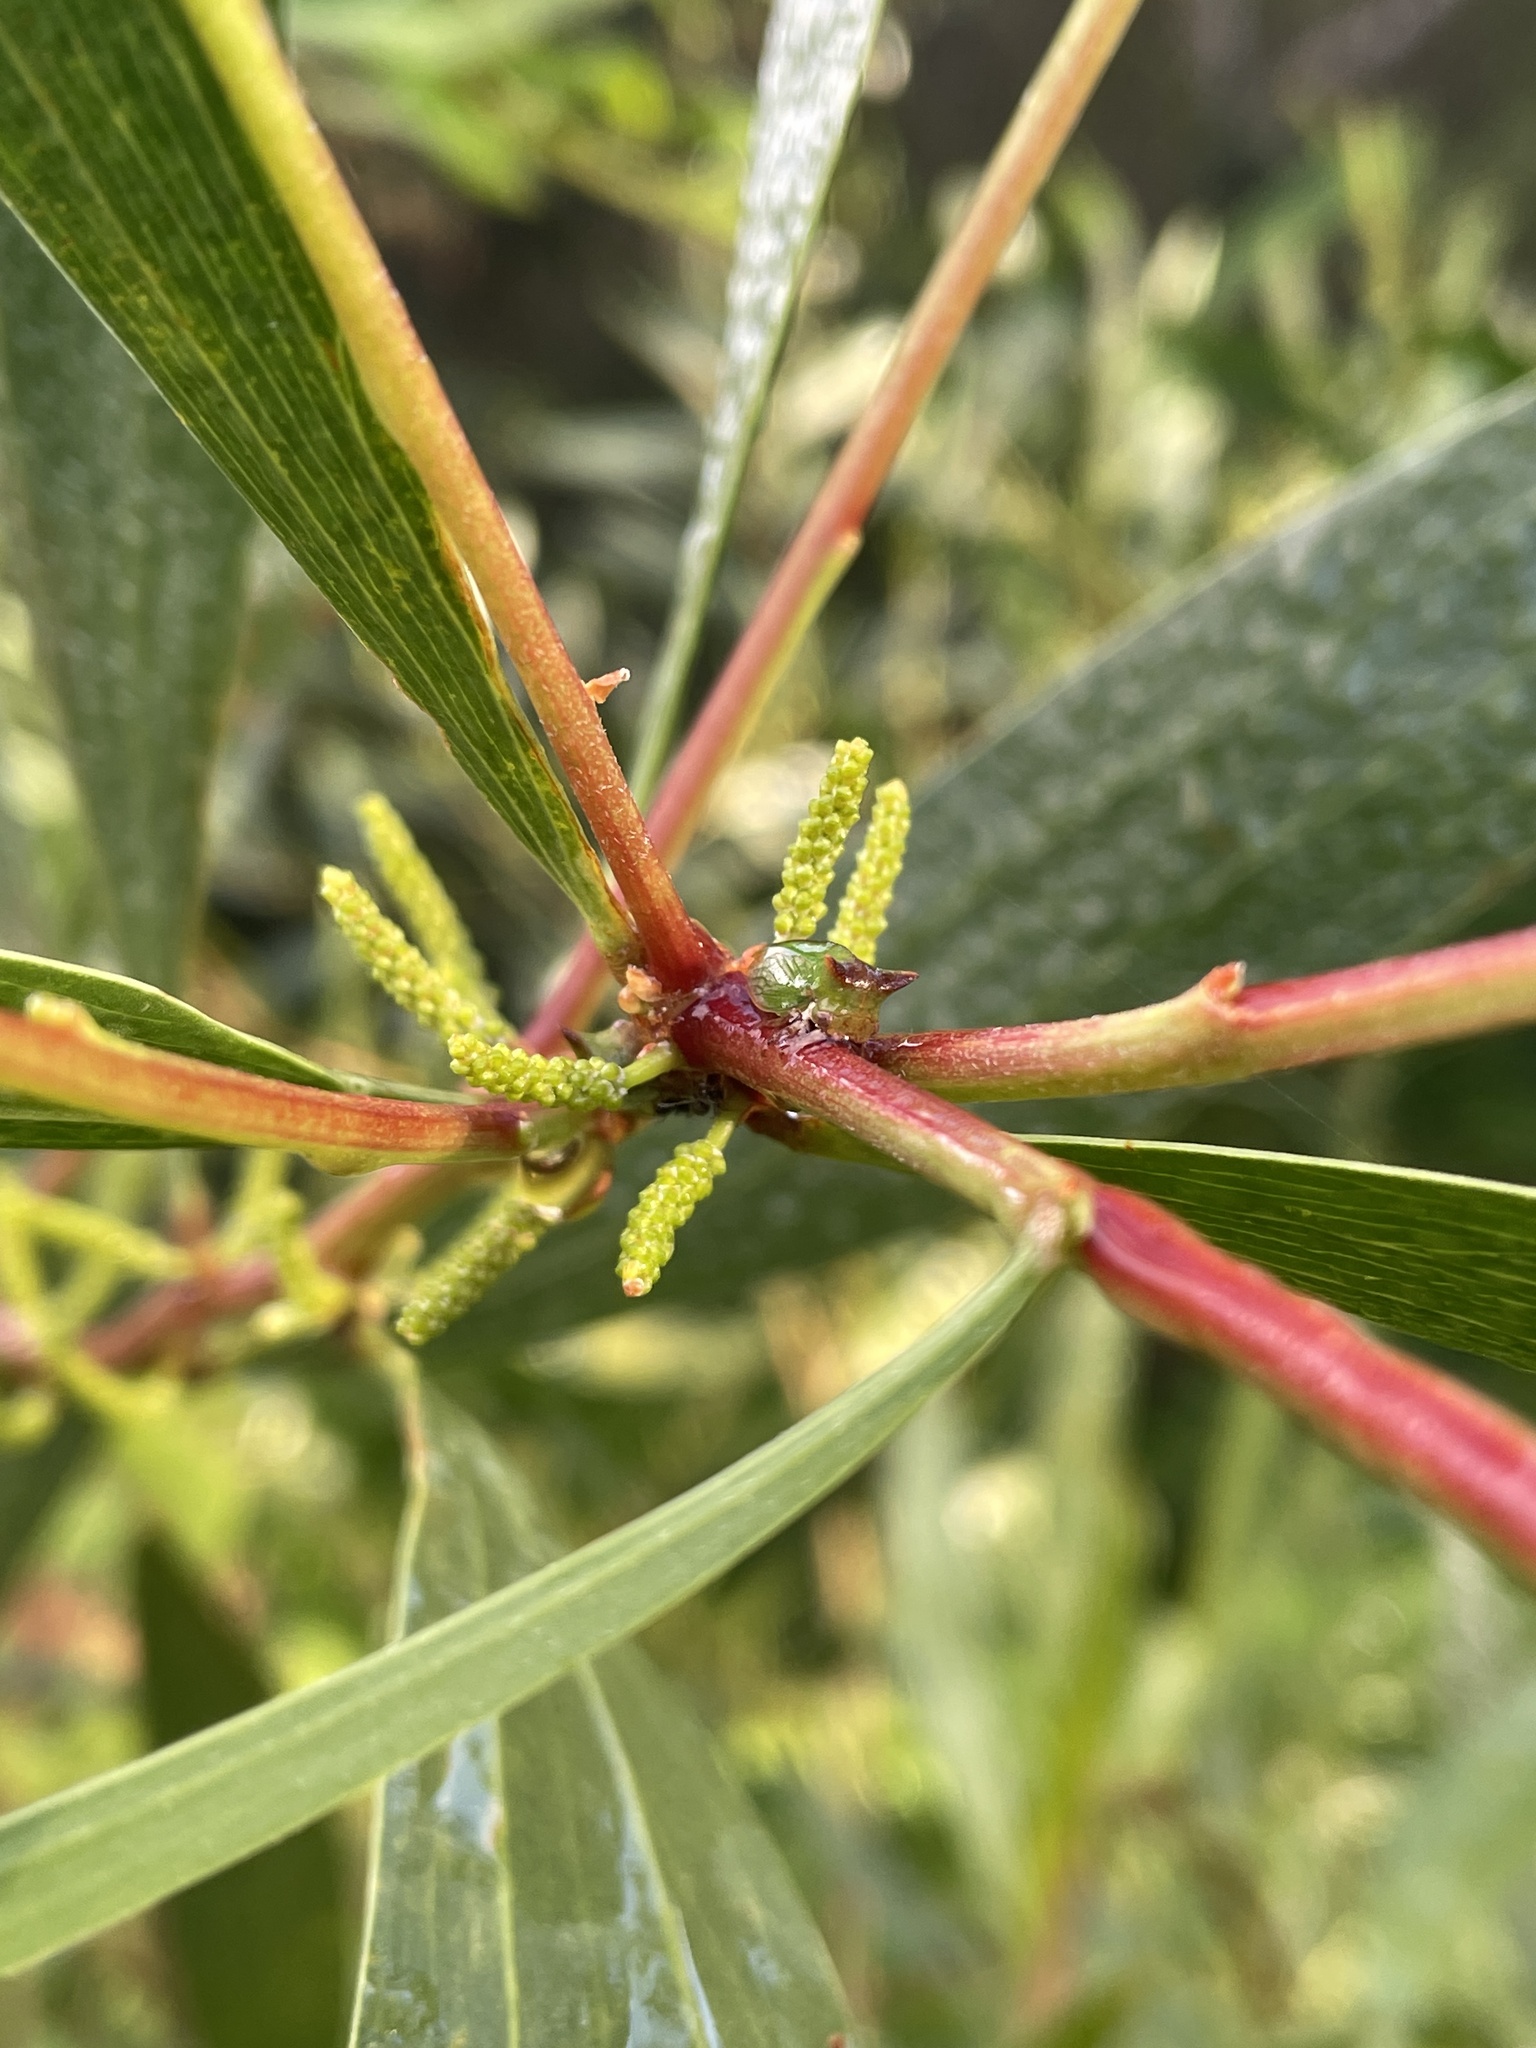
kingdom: Animalia
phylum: Arthropoda
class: Insecta
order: Hemiptera
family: Membracidae
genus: Sextius
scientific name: Sextius virescens
